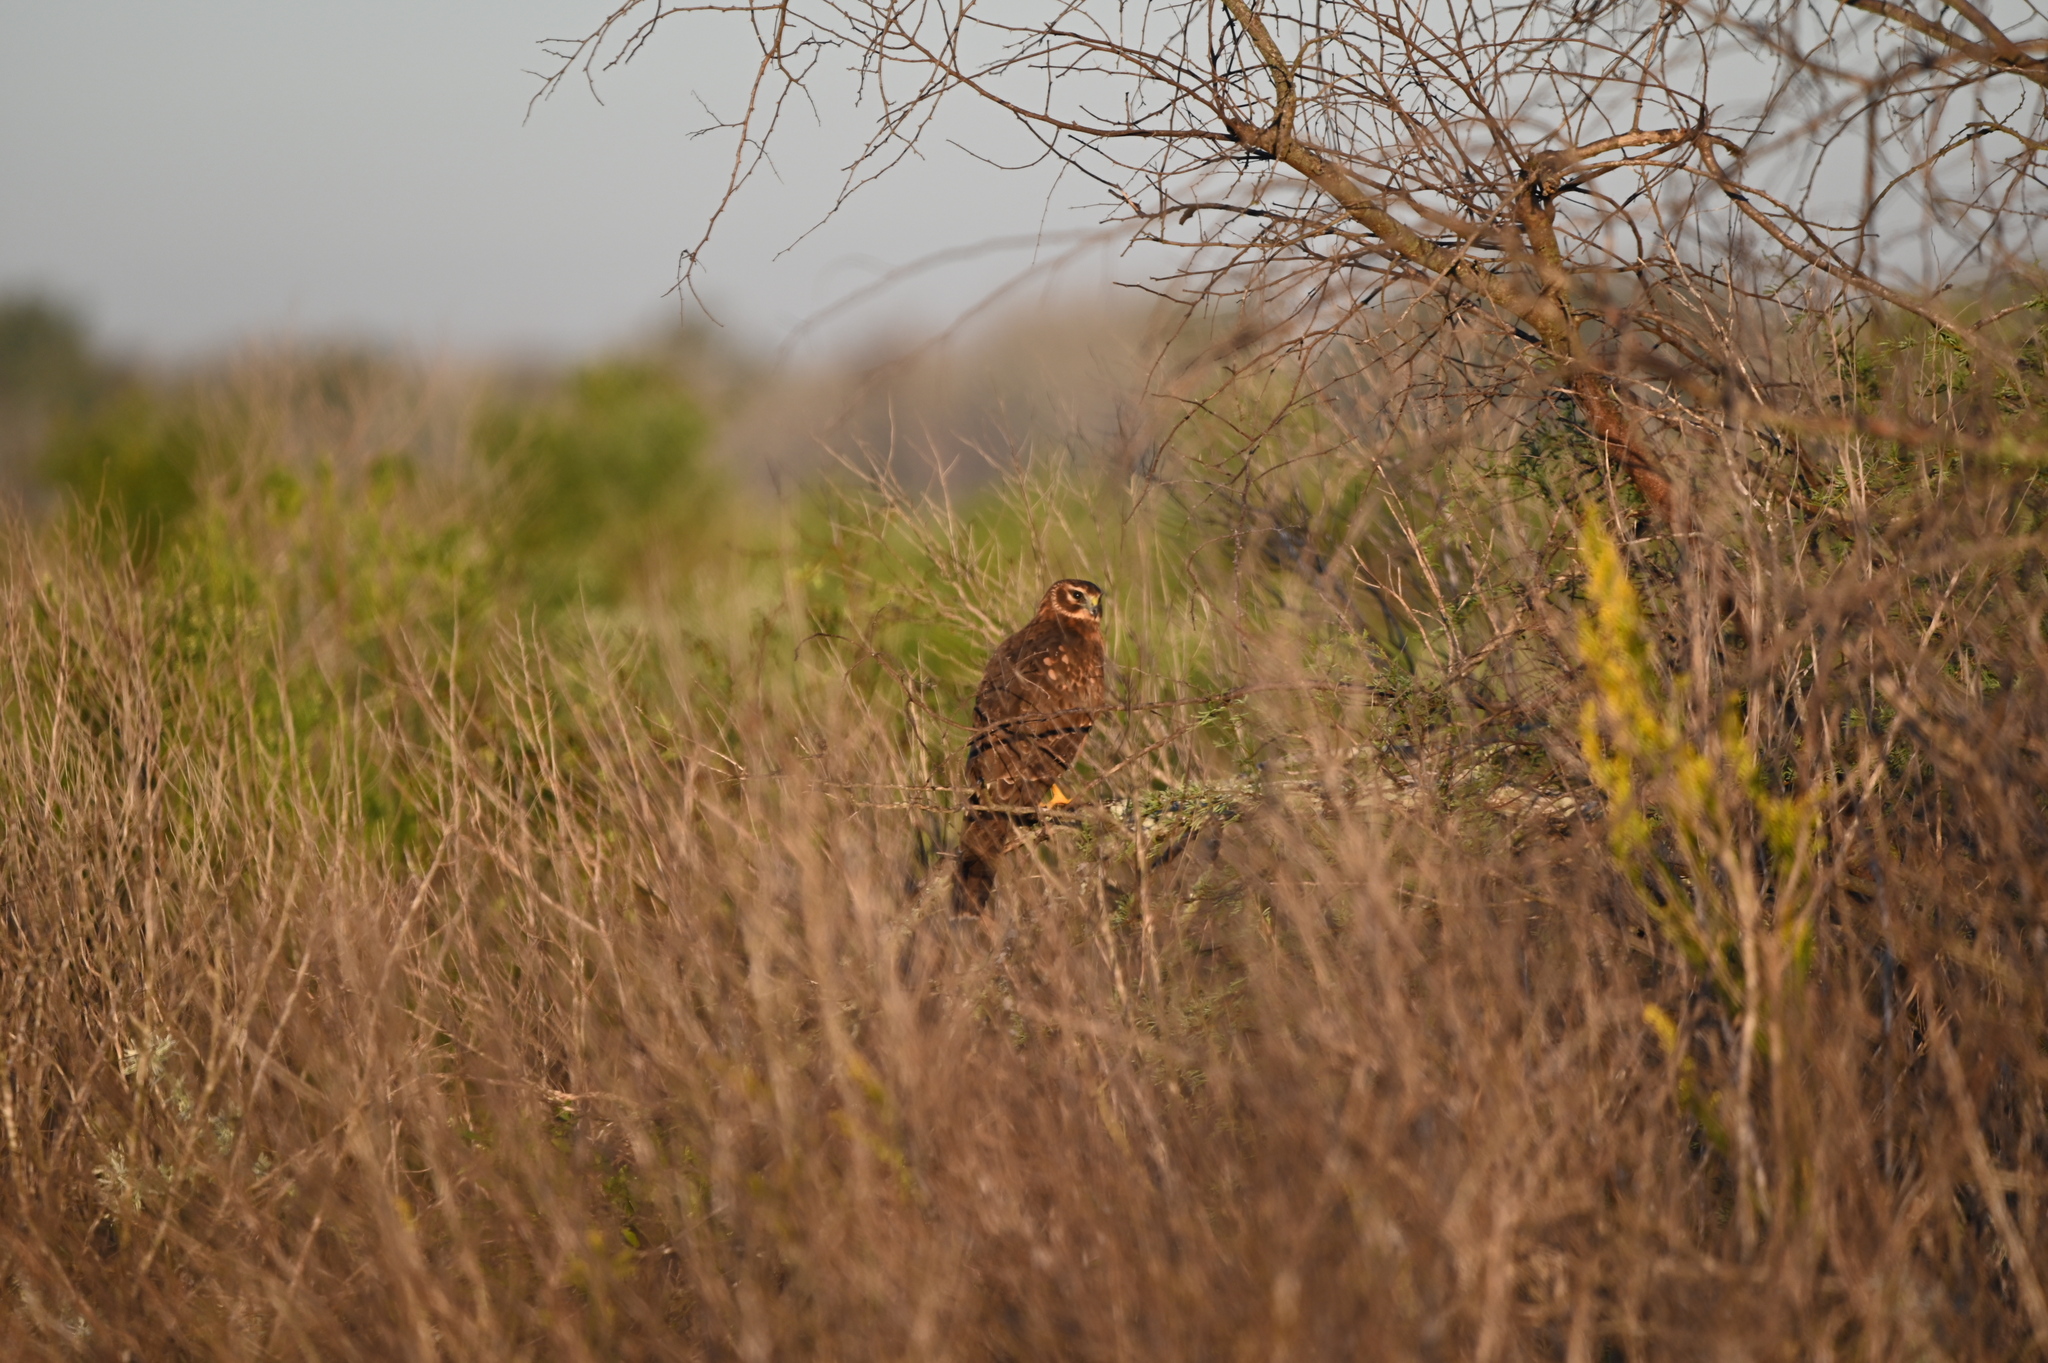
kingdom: Animalia
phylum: Chordata
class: Aves
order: Accipitriformes
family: Accipitridae
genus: Circus
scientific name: Circus cyaneus
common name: Hen harrier
